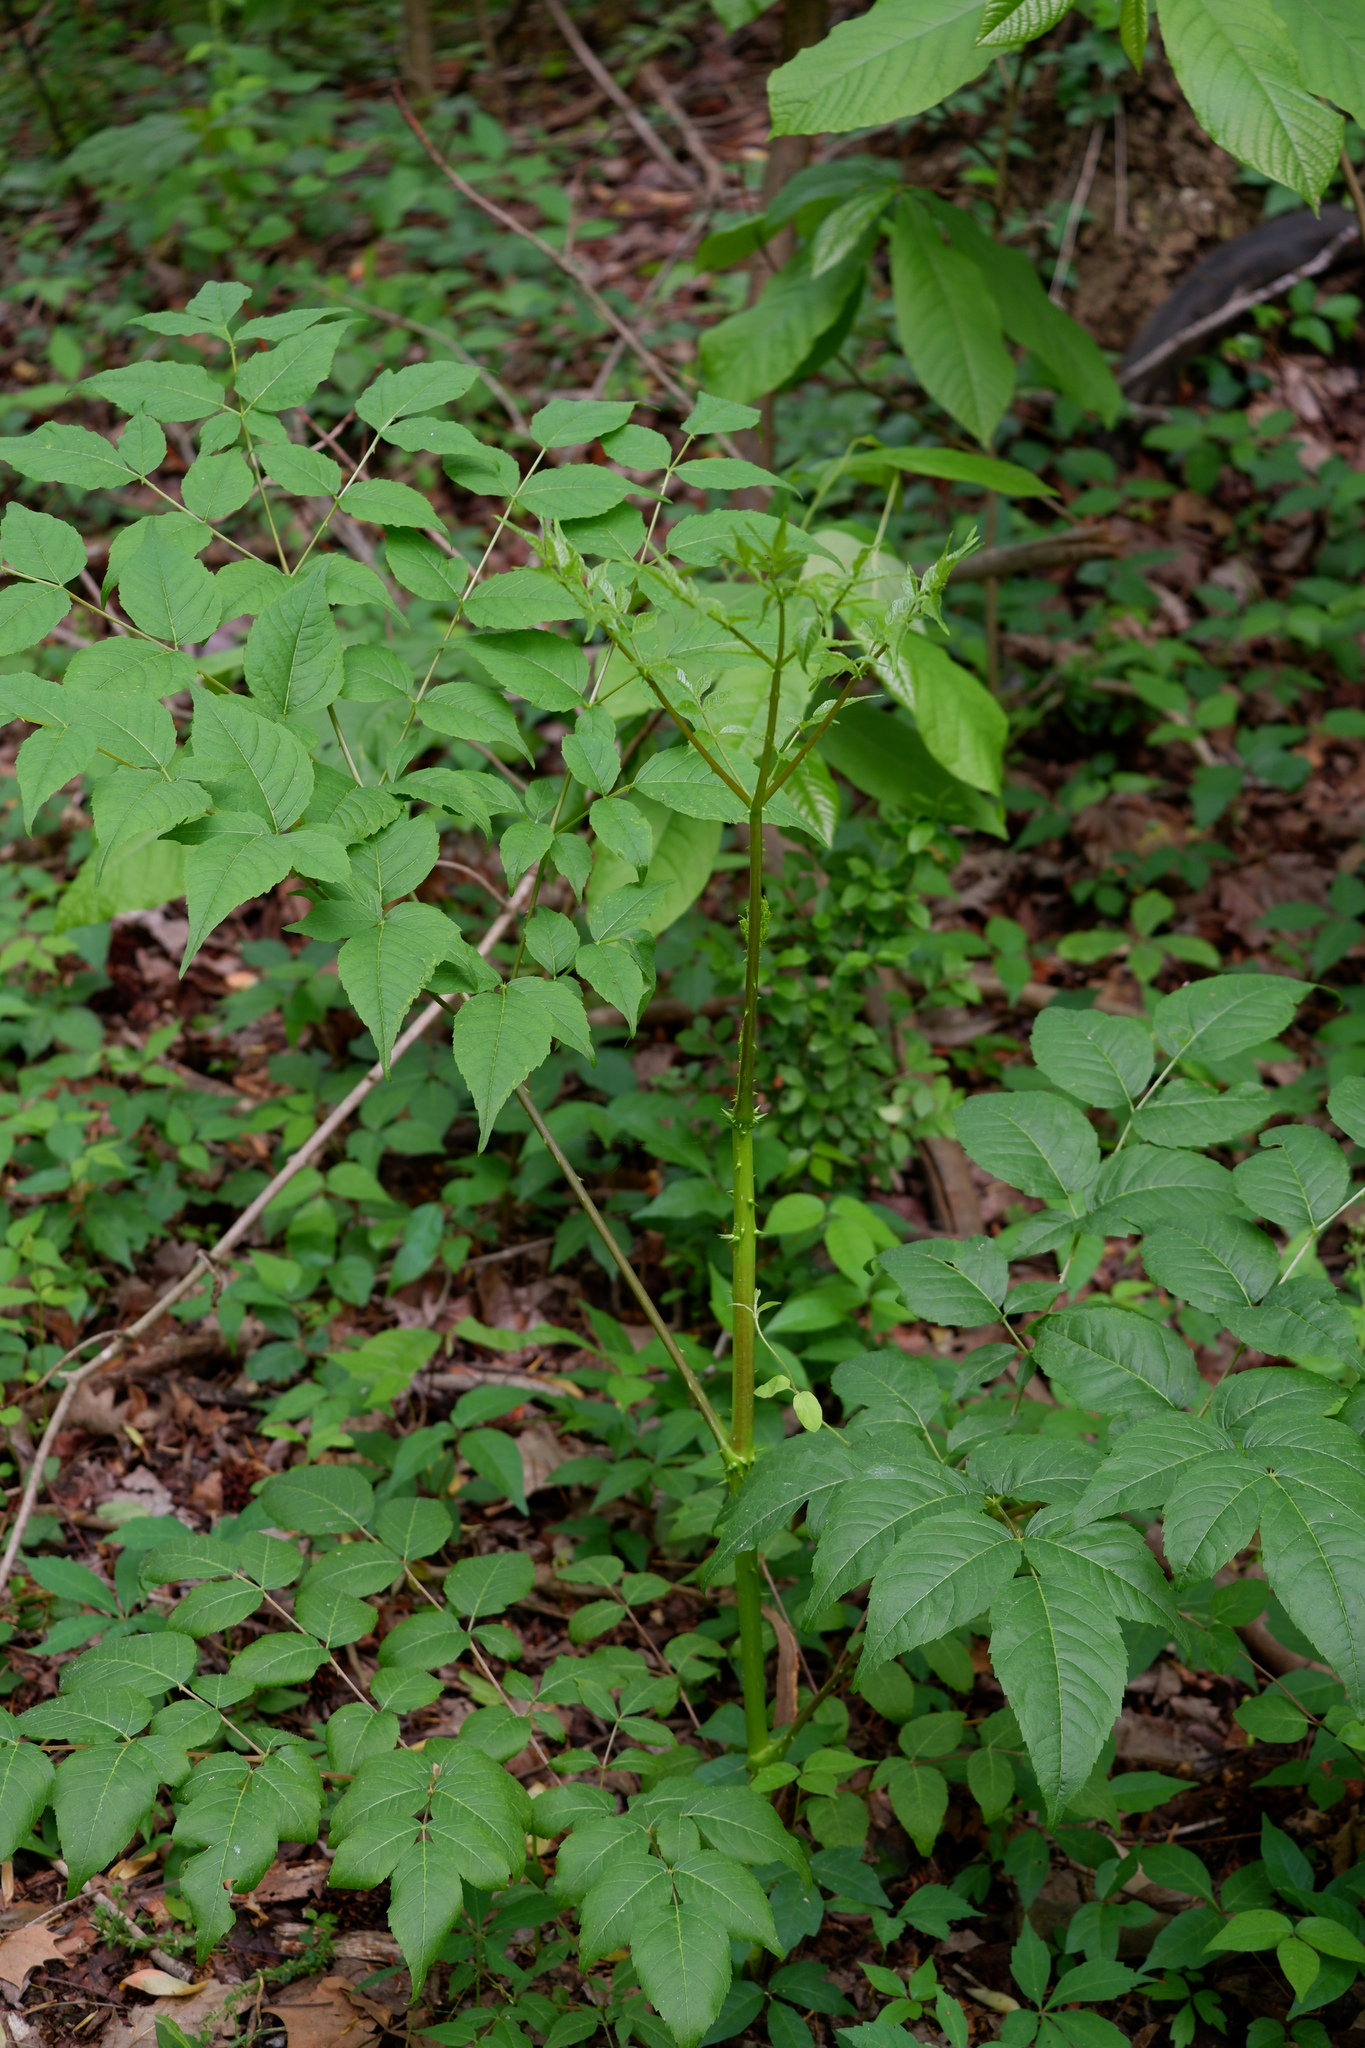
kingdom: Plantae
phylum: Tracheophyta
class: Magnoliopsida
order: Apiales
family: Araliaceae
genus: Aralia
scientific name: Aralia spinosa
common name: Hercules'-club
